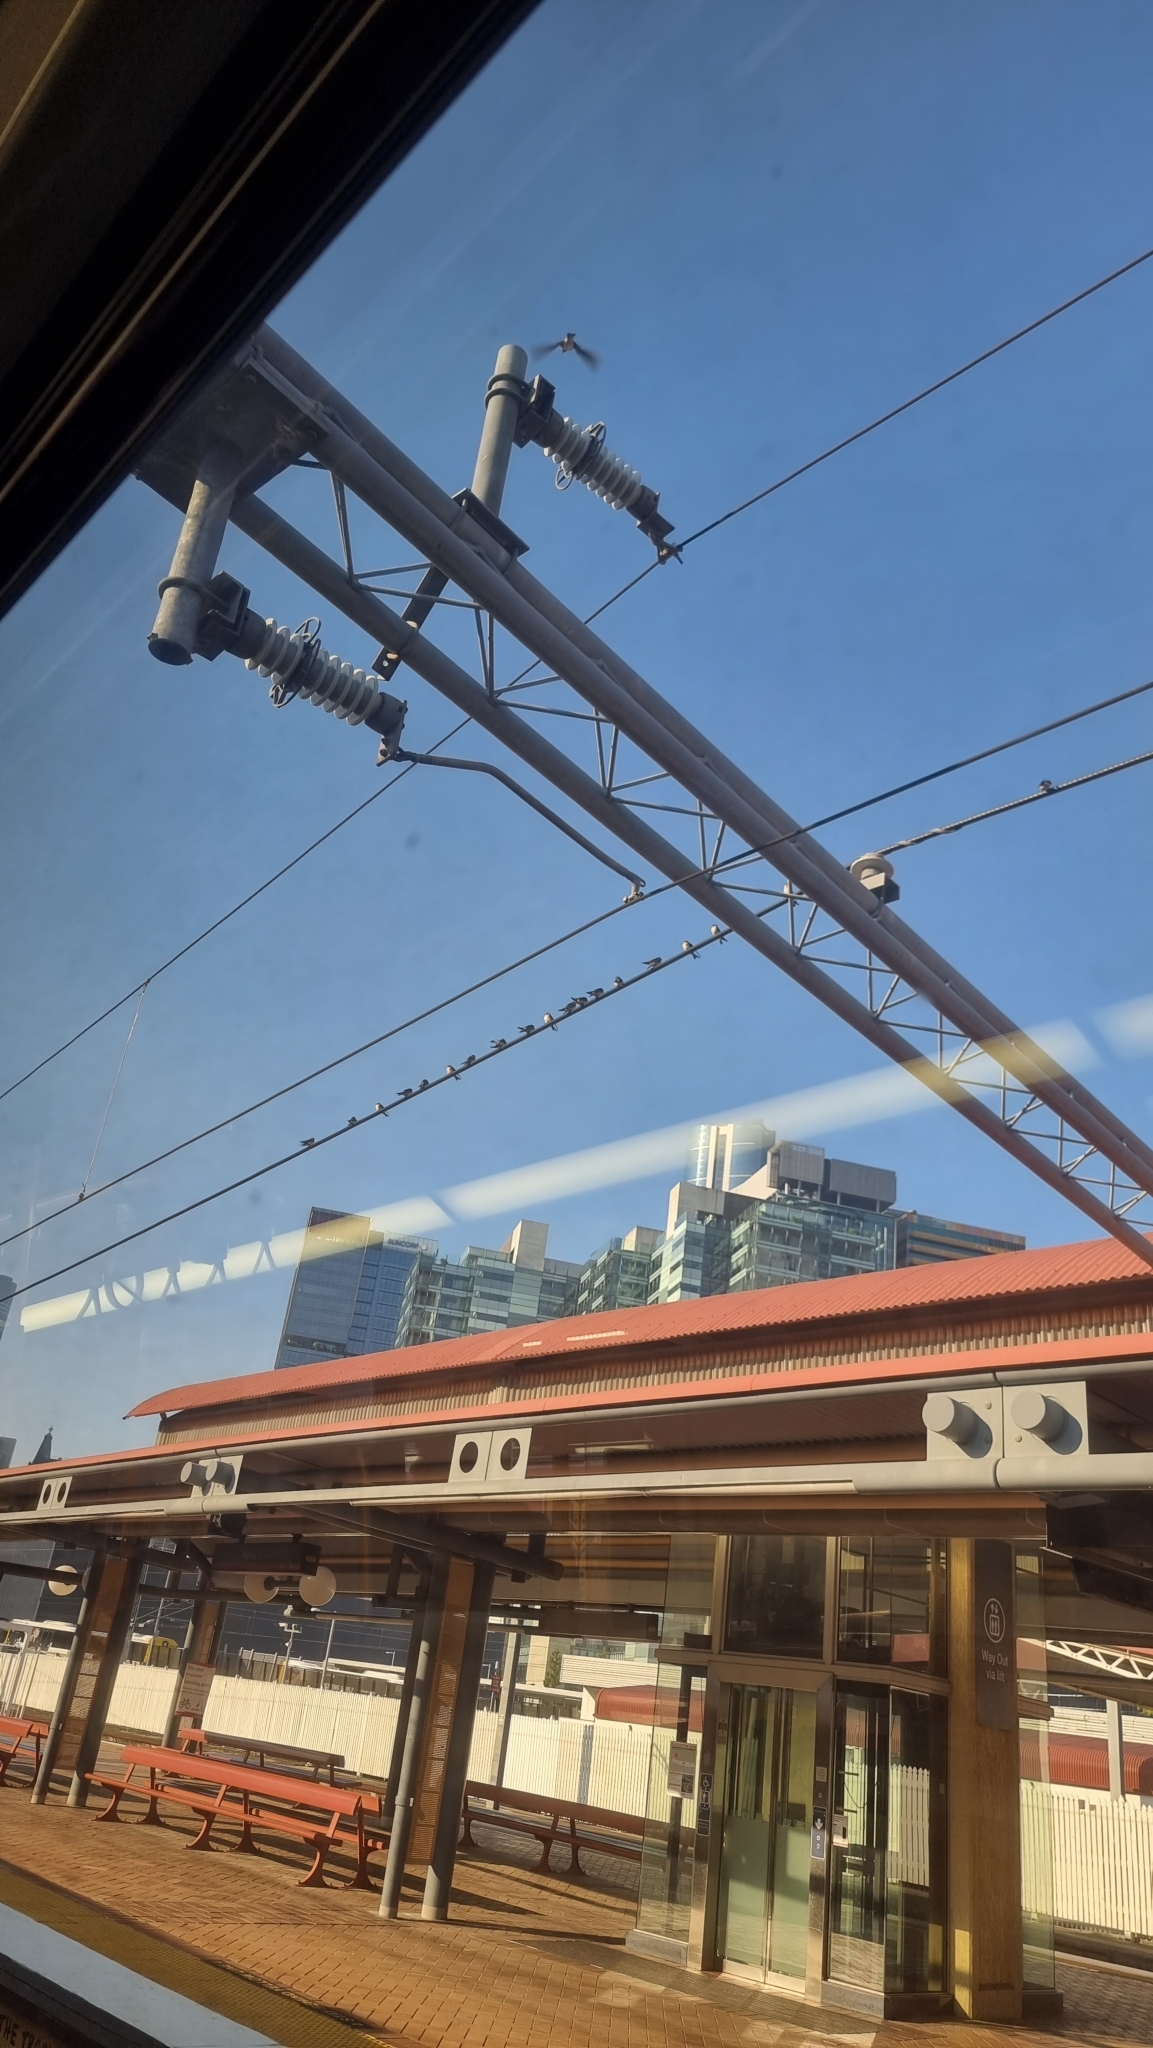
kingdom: Animalia
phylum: Chordata
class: Aves
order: Passeriformes
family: Hirundinidae
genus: Petrochelidon
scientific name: Petrochelidon nigricans
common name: Tree martin
